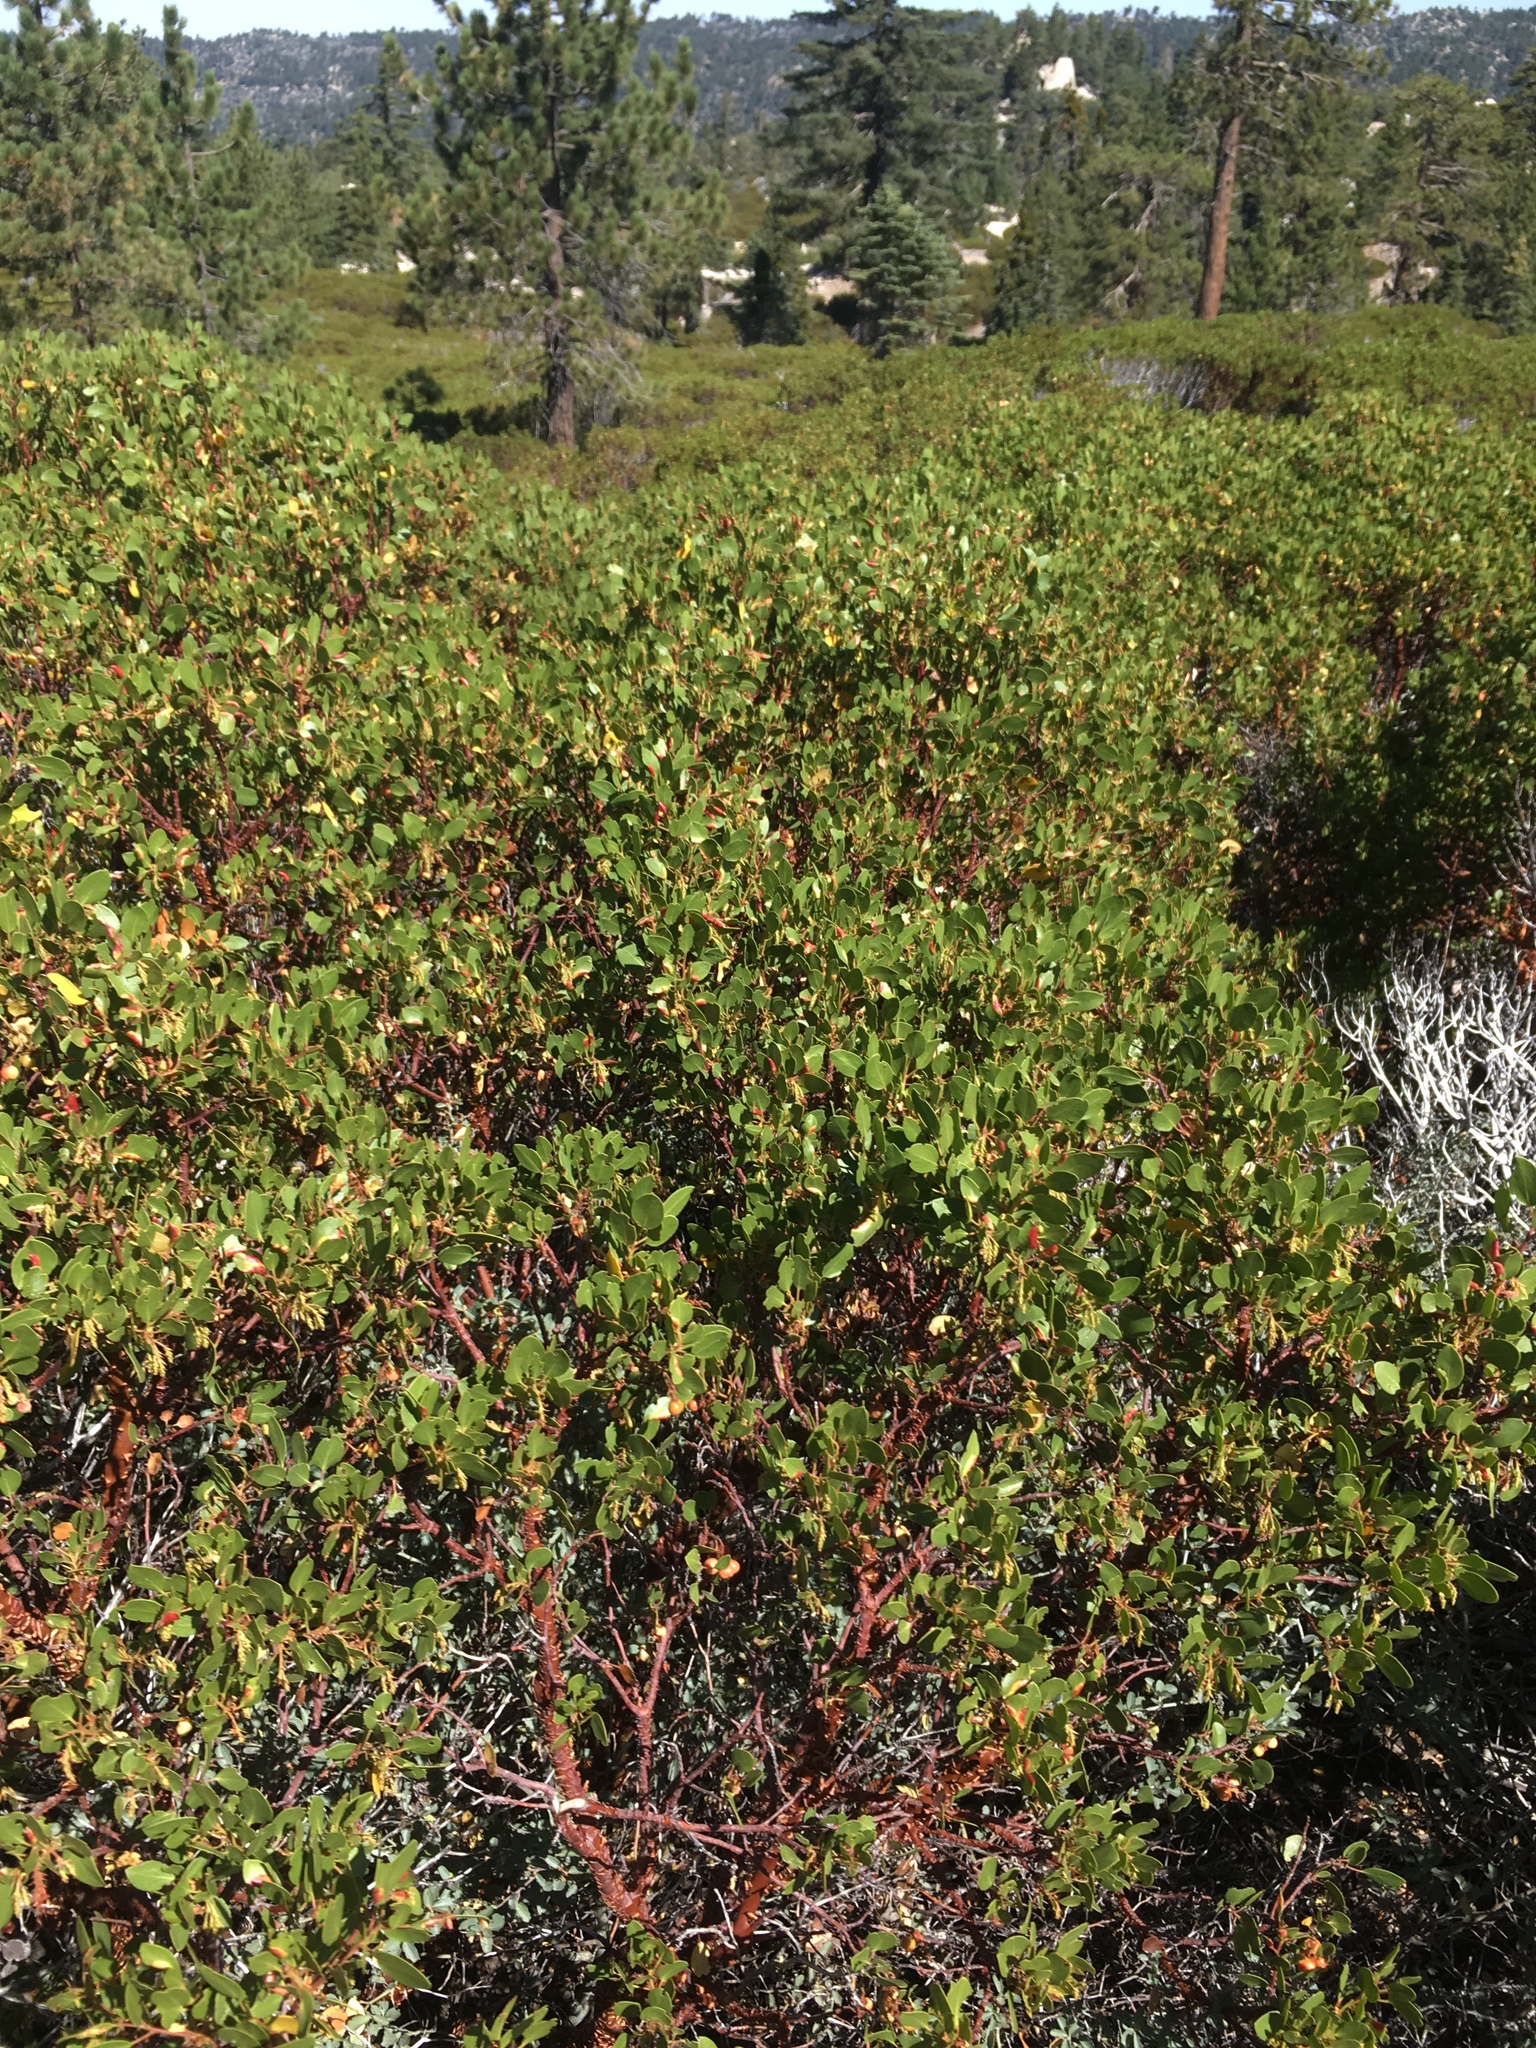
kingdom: Plantae
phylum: Tracheophyta
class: Magnoliopsida
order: Ericales
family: Ericaceae
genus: Arctostaphylos
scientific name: Arctostaphylos patula
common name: Green-leaf manzanita
